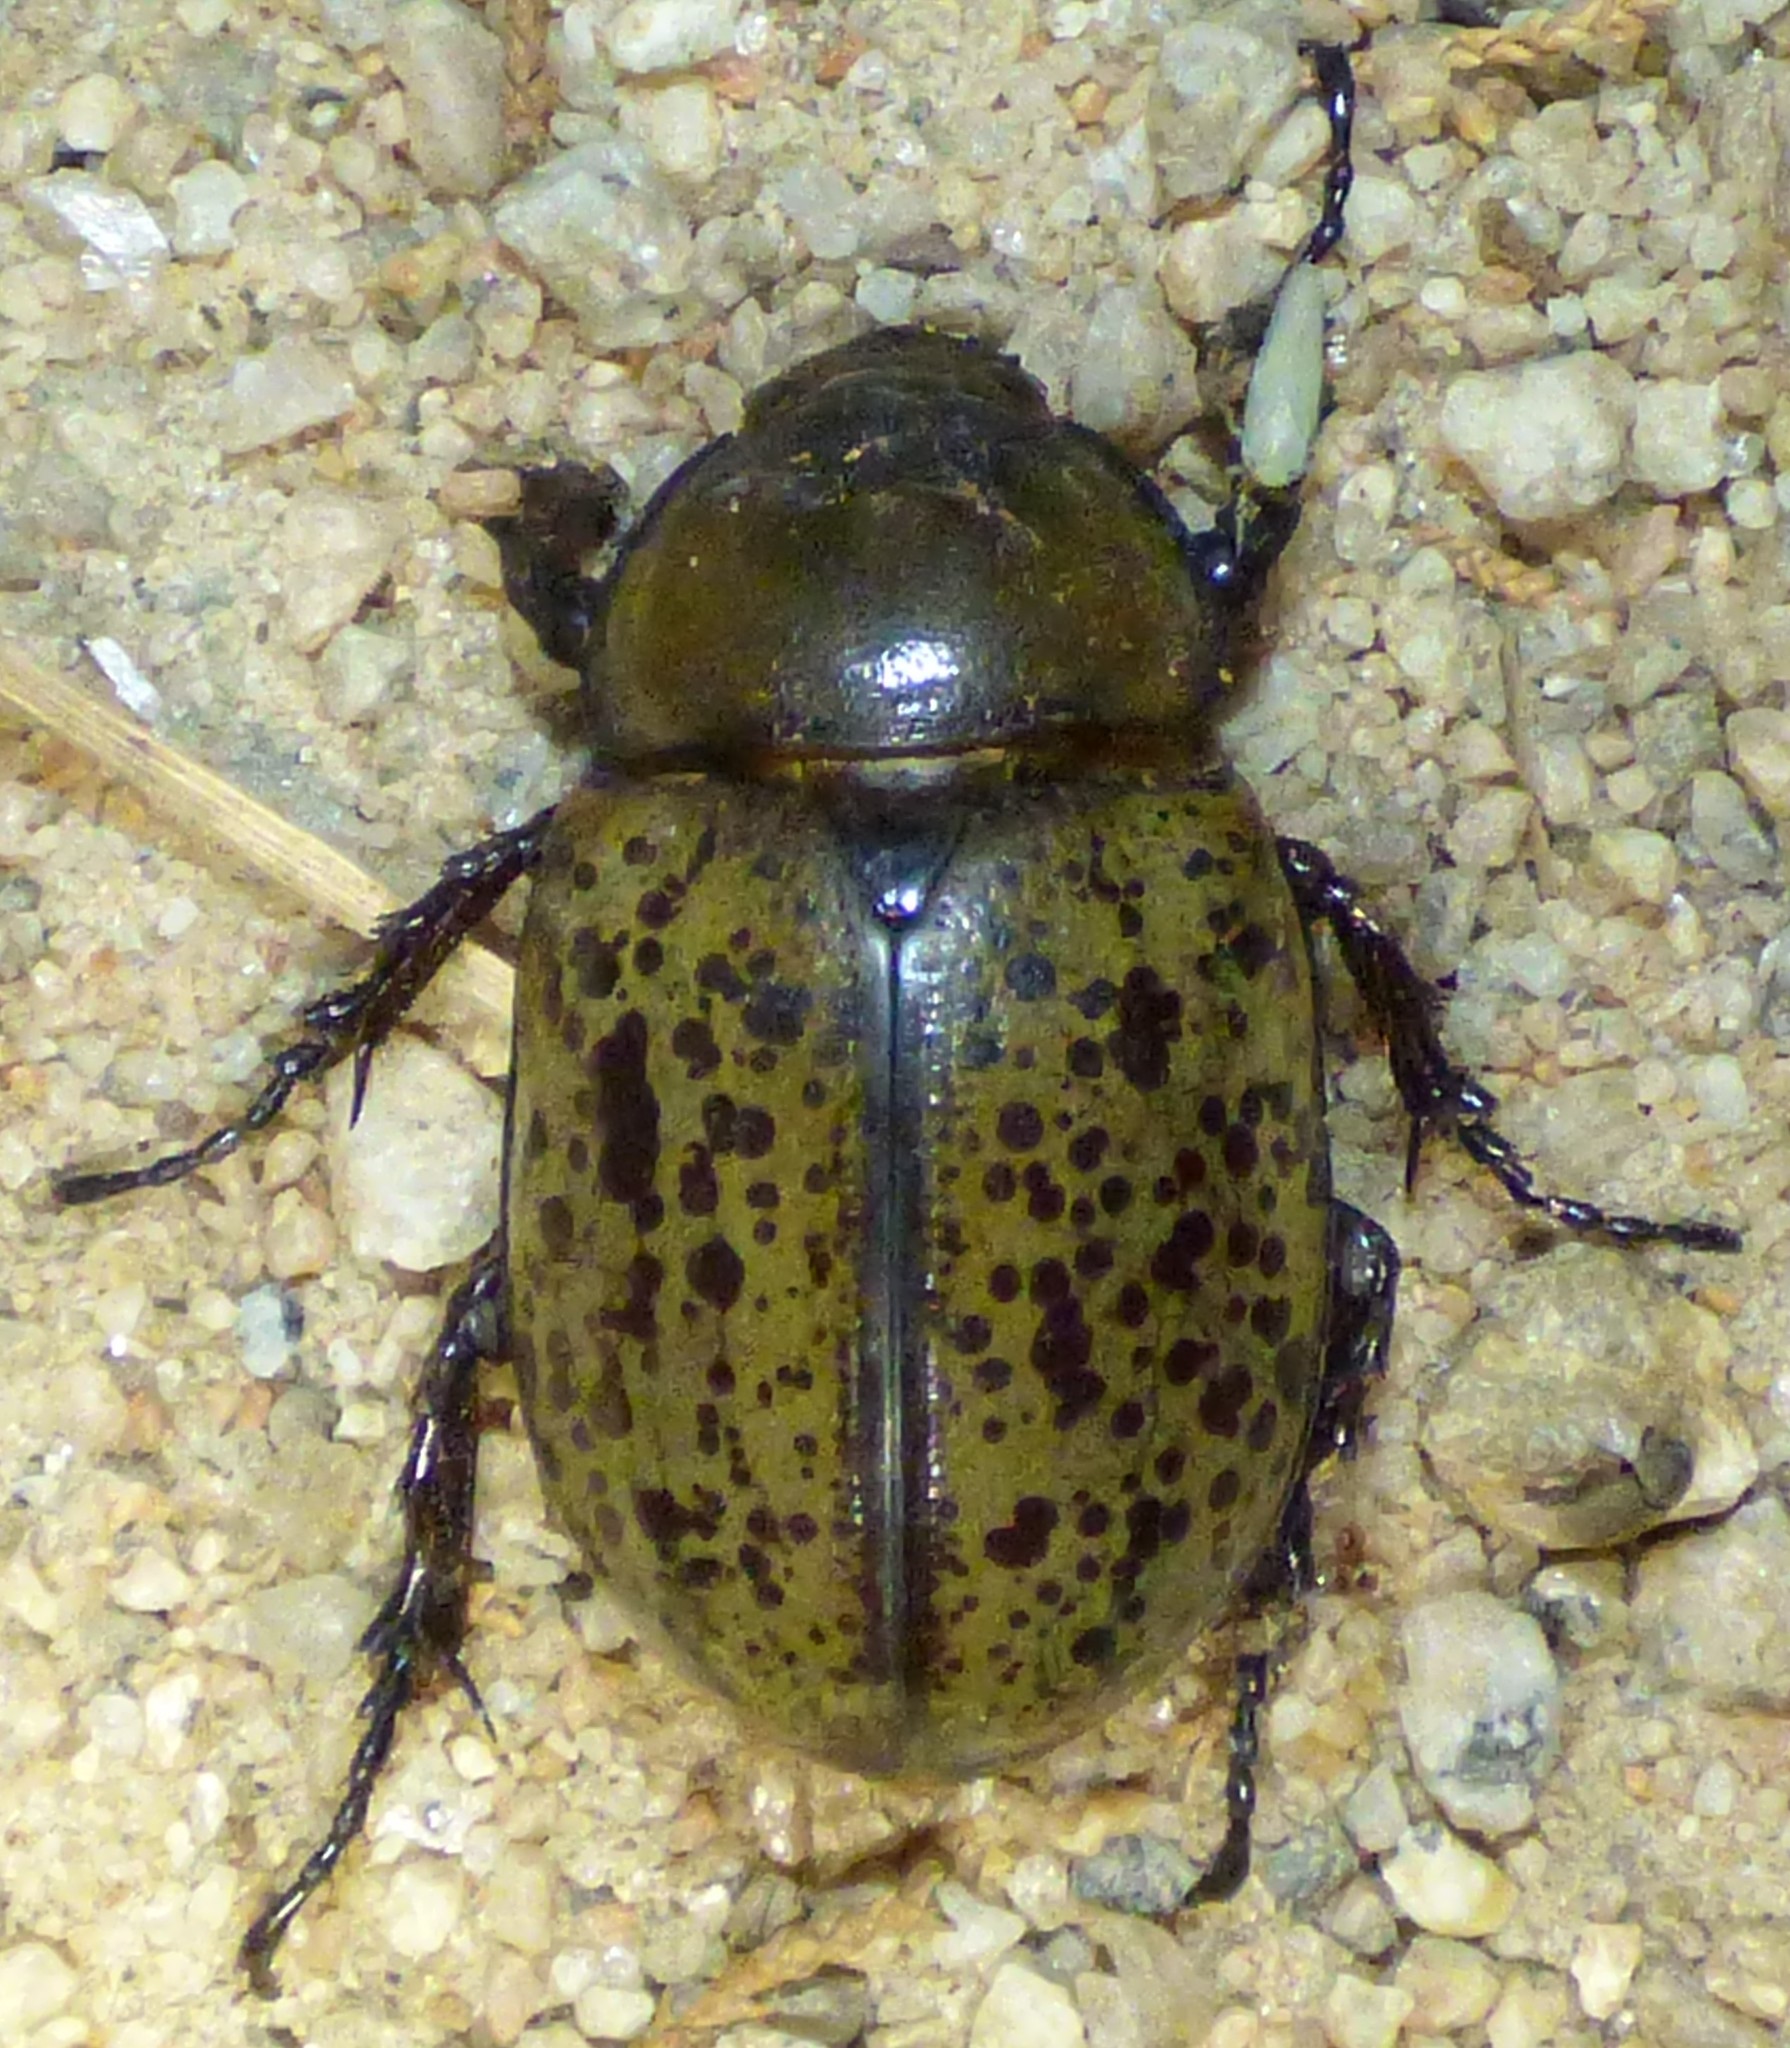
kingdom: Animalia
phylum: Arthropoda
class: Insecta
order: Coleoptera
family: Scarabaeidae
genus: Dynastes
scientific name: Dynastes tityus
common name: Eastern hercules beetle
